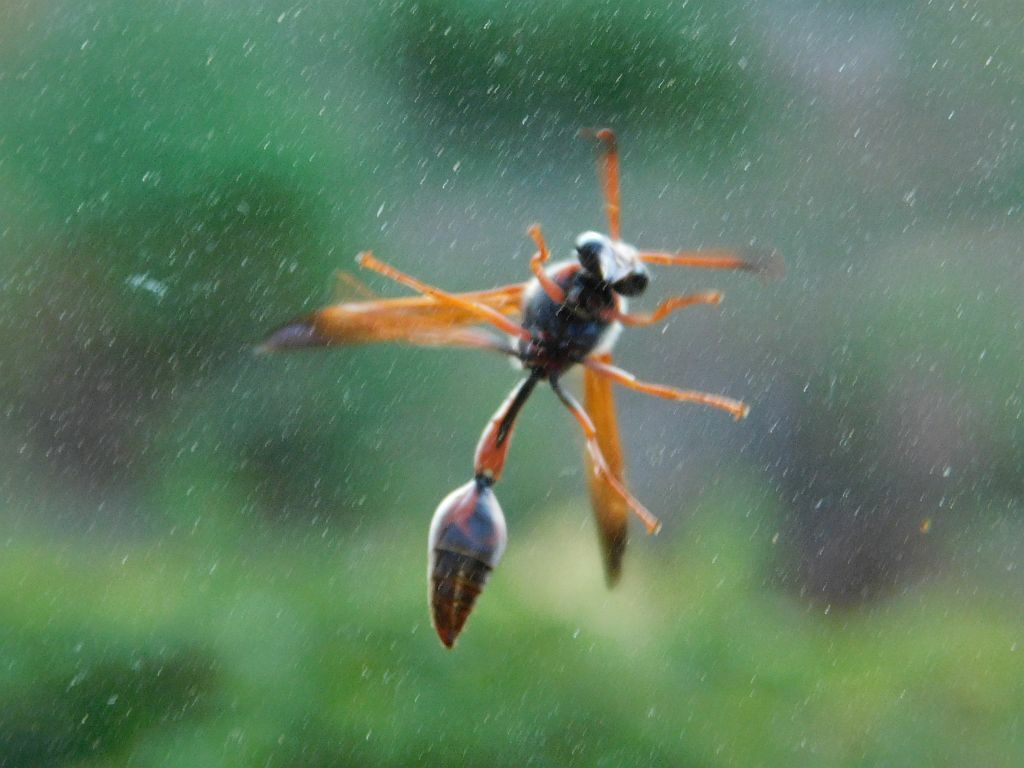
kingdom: Animalia
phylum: Arthropoda
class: Insecta
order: Hymenoptera
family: Eumenidae
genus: Delta
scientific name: Delta concinnum
